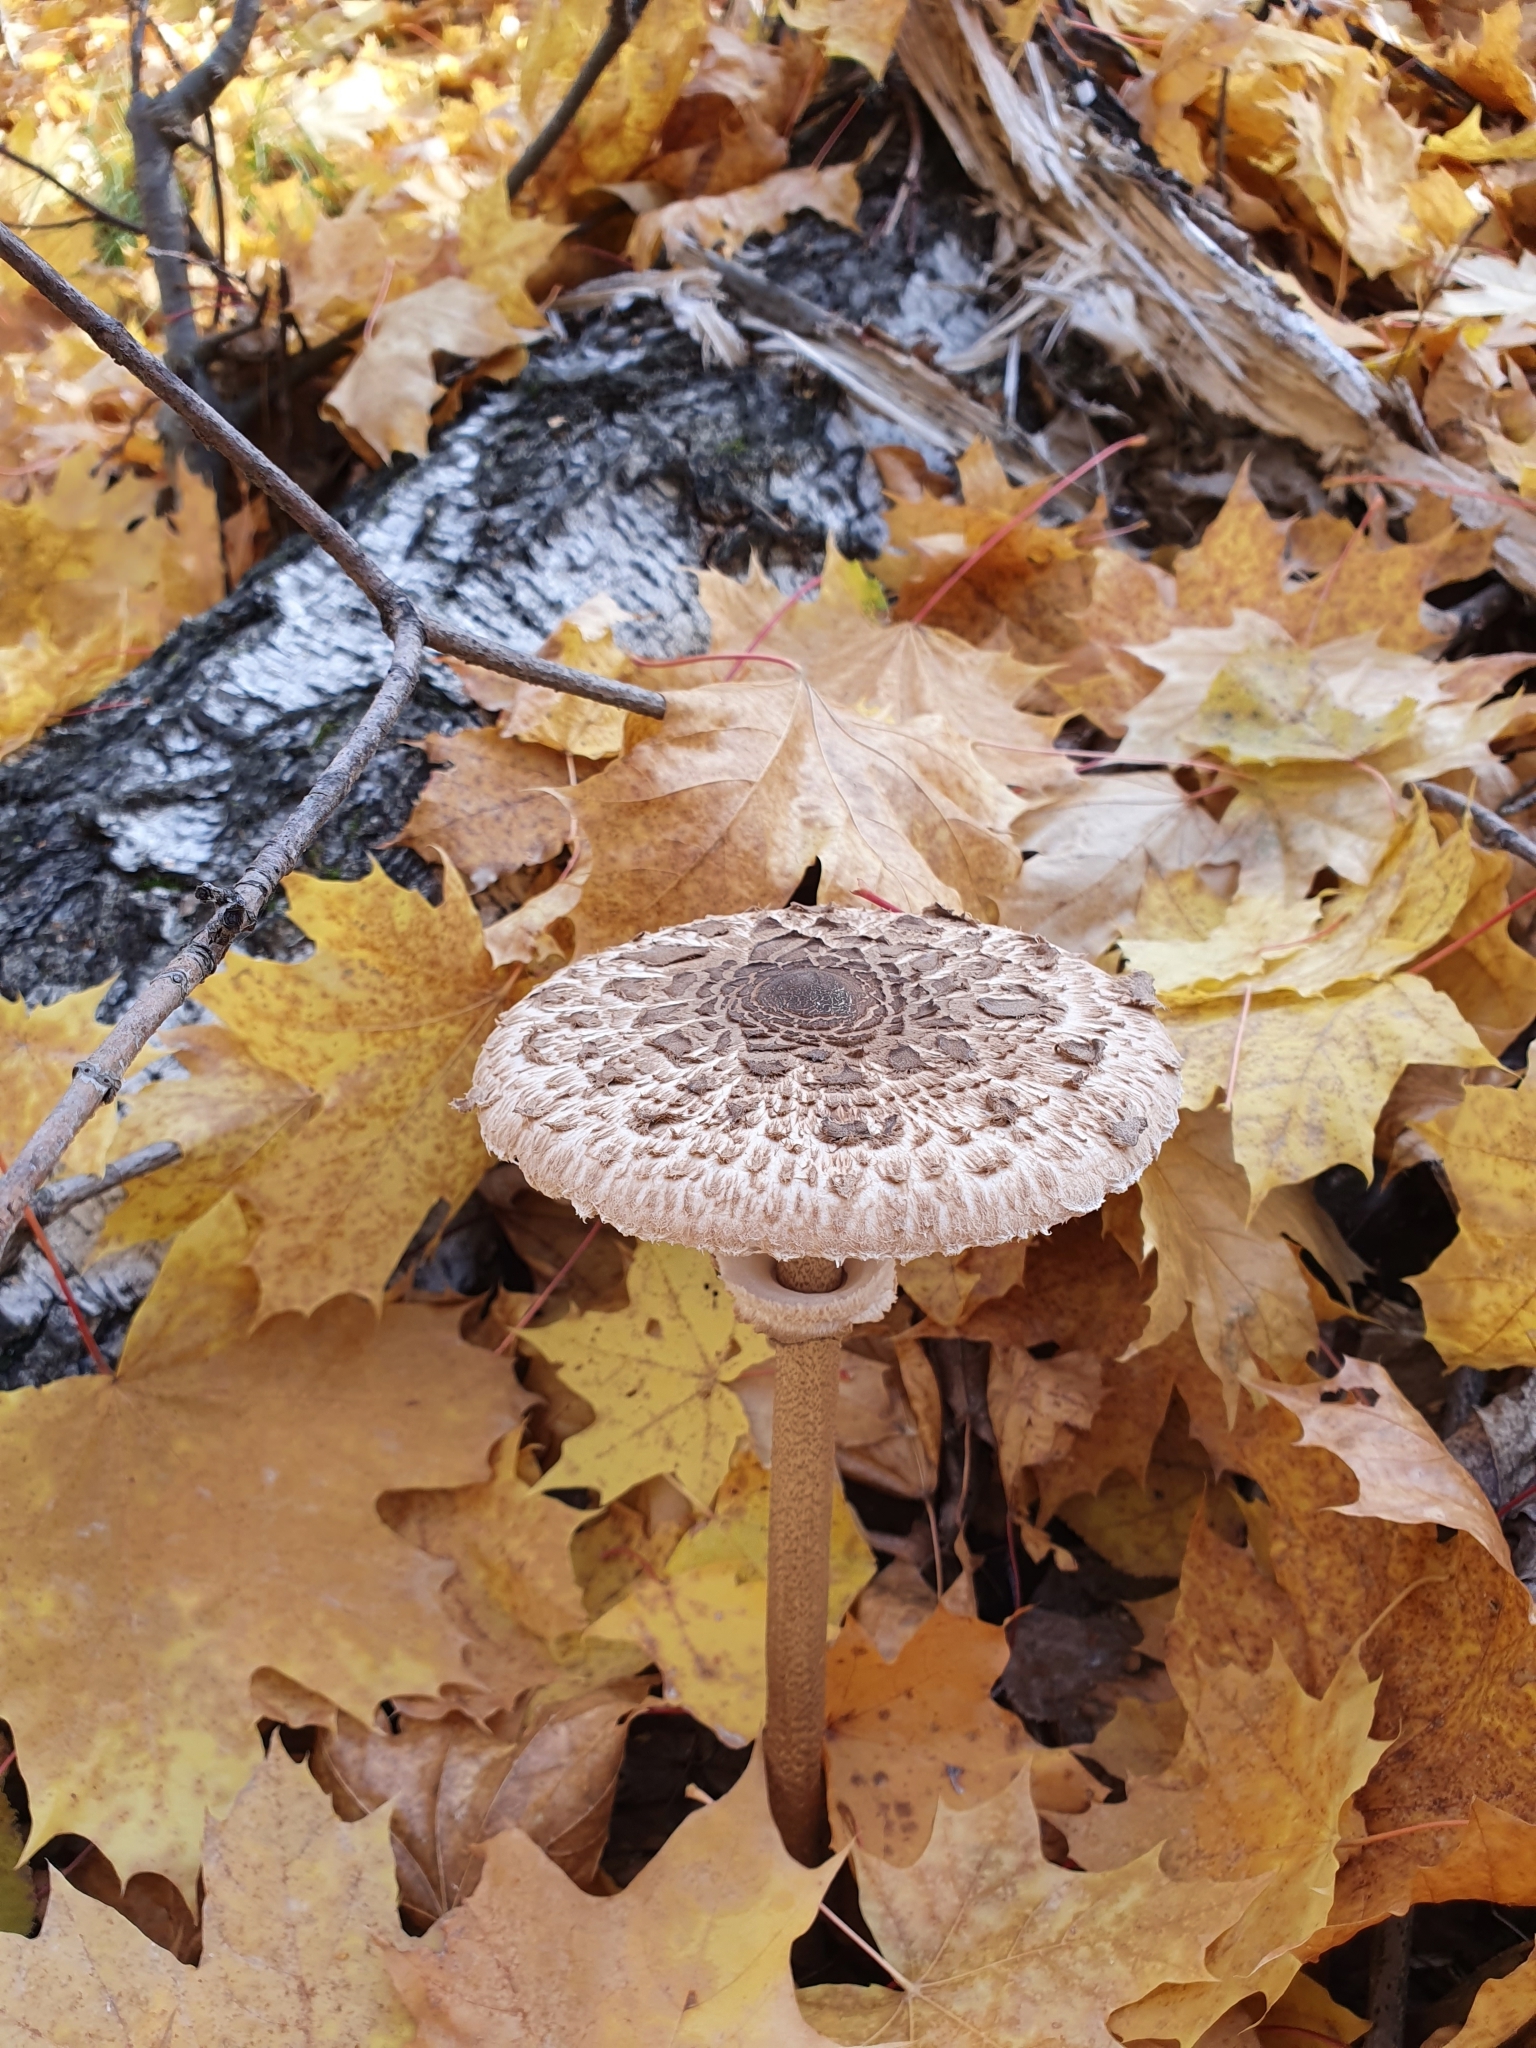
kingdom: Fungi
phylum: Basidiomycota
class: Agaricomycetes
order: Agaricales
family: Agaricaceae
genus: Macrolepiota
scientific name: Macrolepiota procera
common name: Parasol
